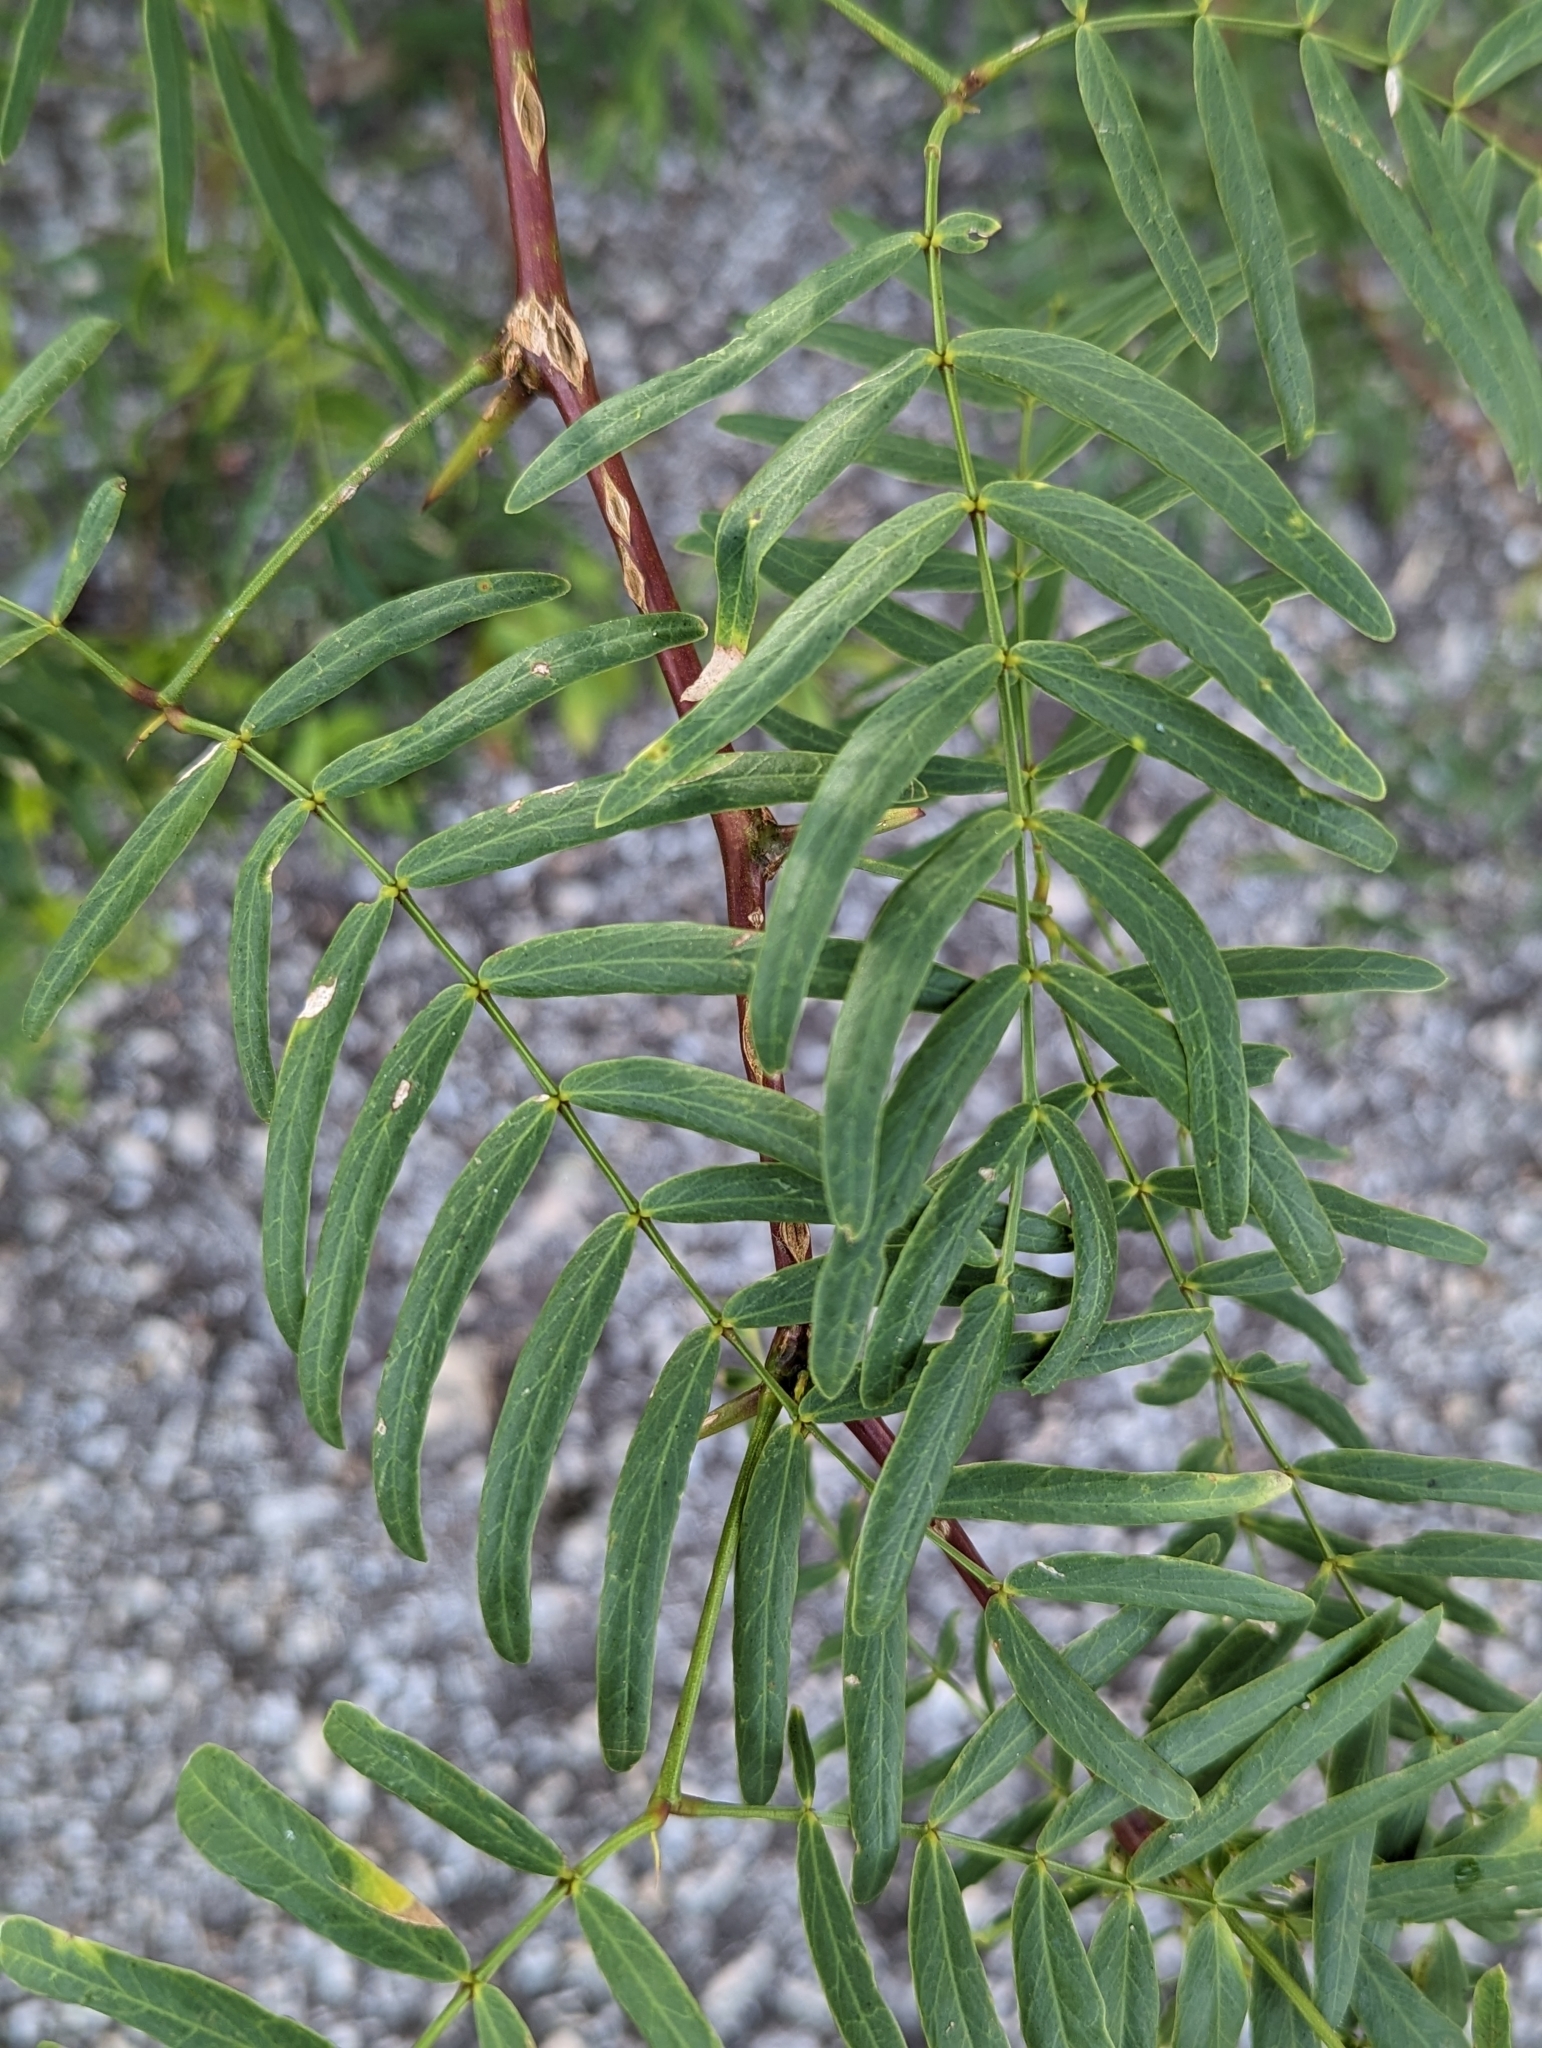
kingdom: Plantae
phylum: Tracheophyta
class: Magnoliopsida
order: Fabales
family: Fabaceae
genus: Prosopis
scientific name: Prosopis glandulosa
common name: Honey mesquite
